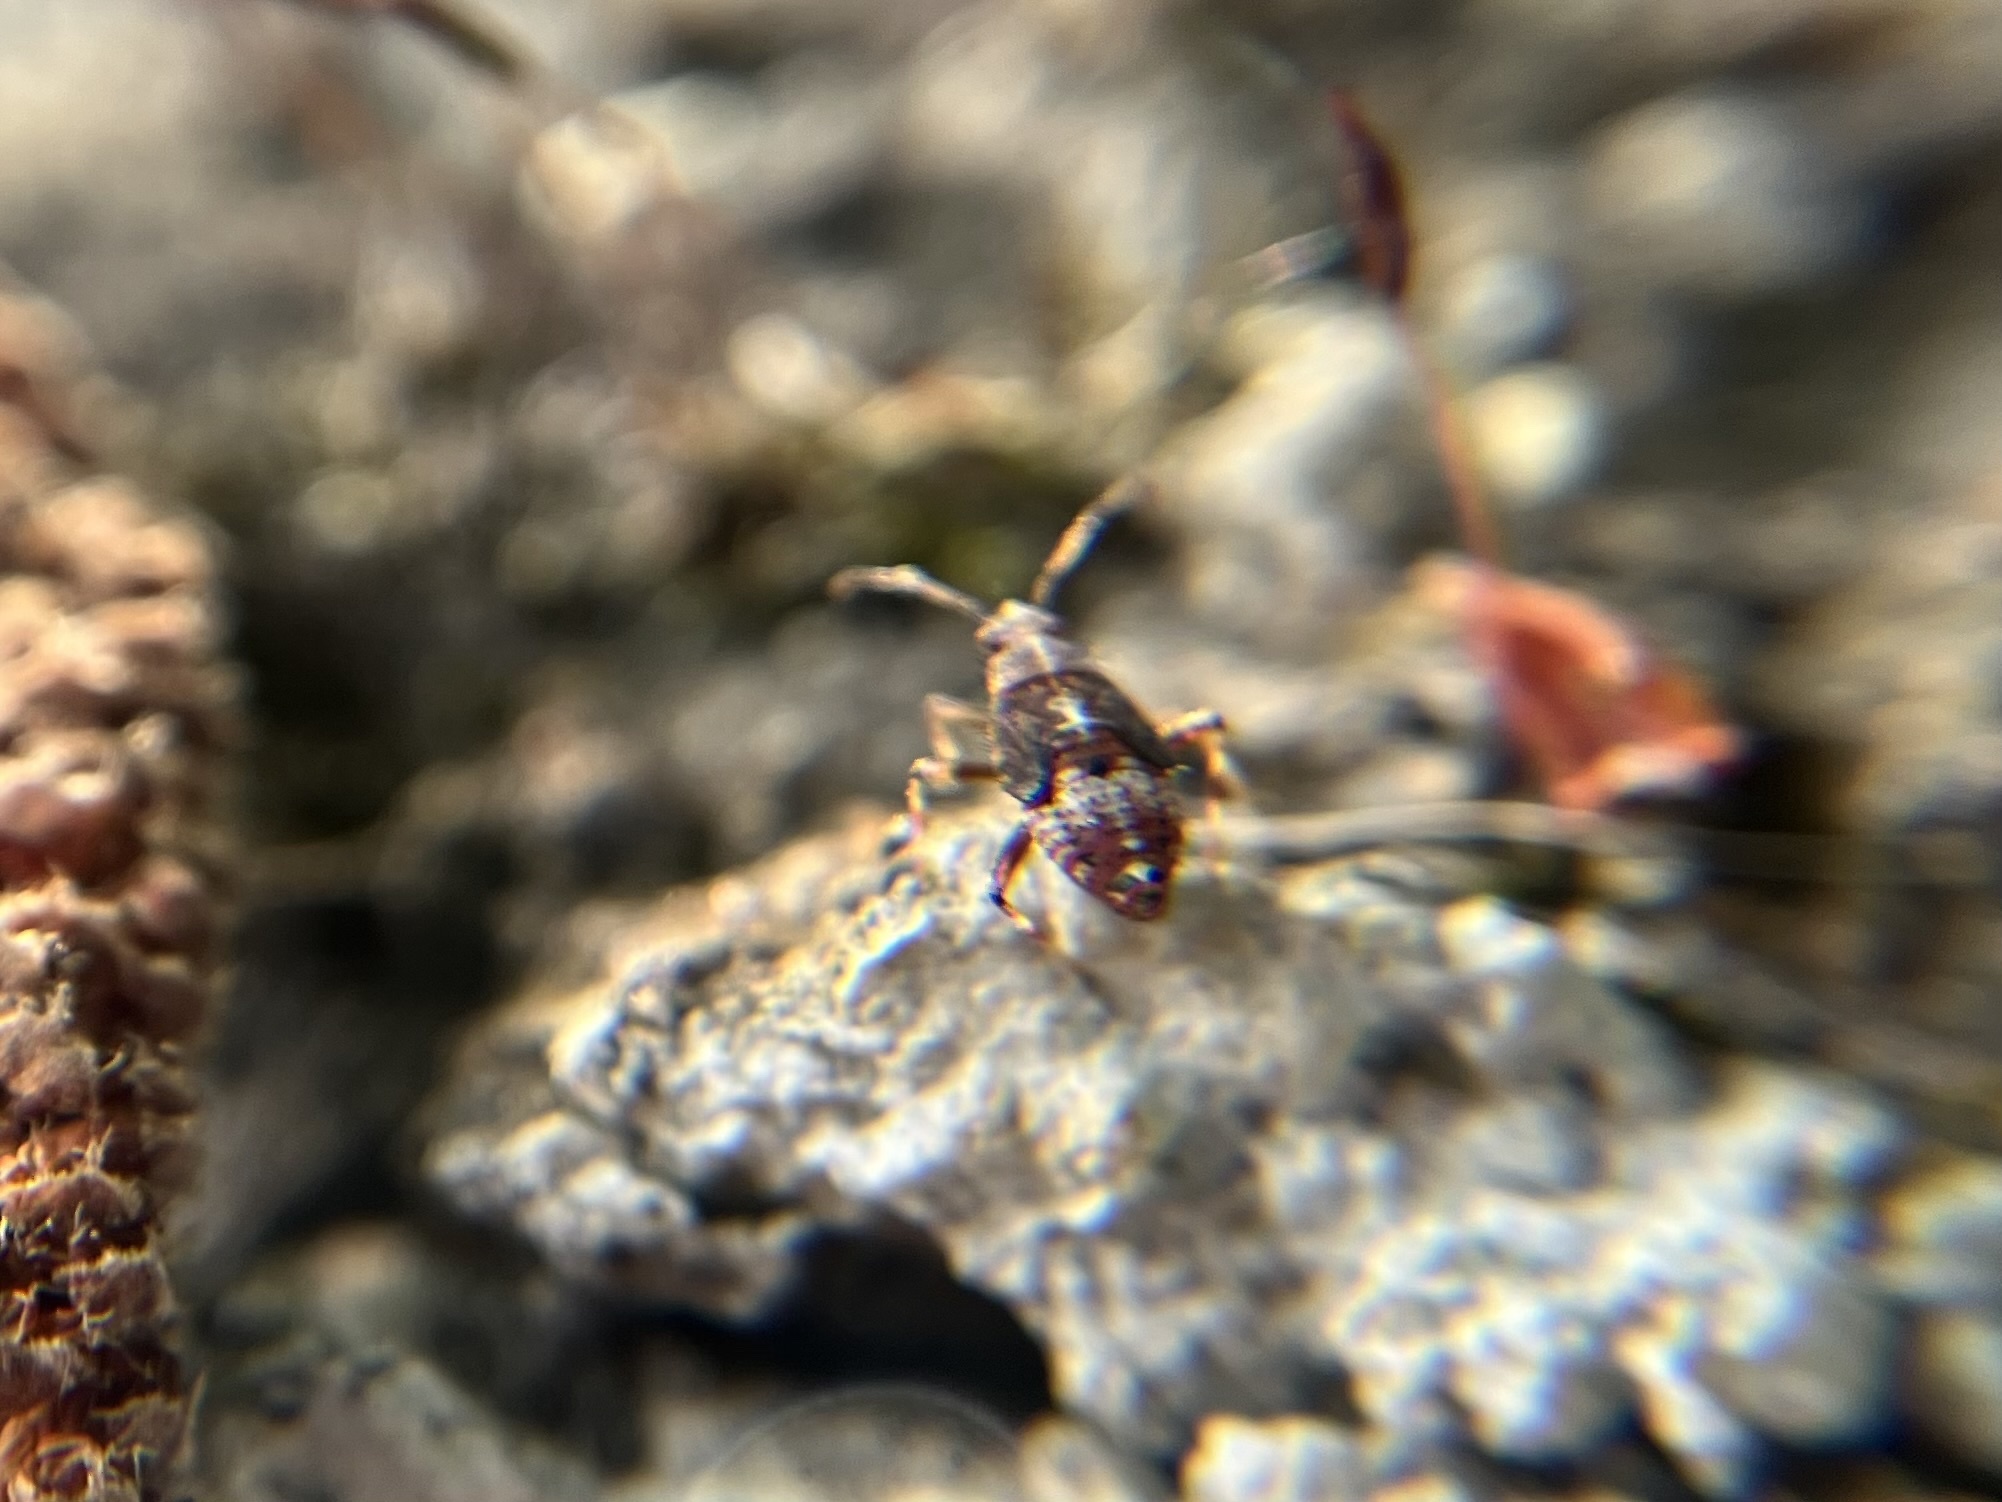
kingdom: Animalia
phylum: Arthropoda
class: Insecta
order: Hemiptera
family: Miridae
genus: Deraeocoris
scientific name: Deraeocoris flavilinea
